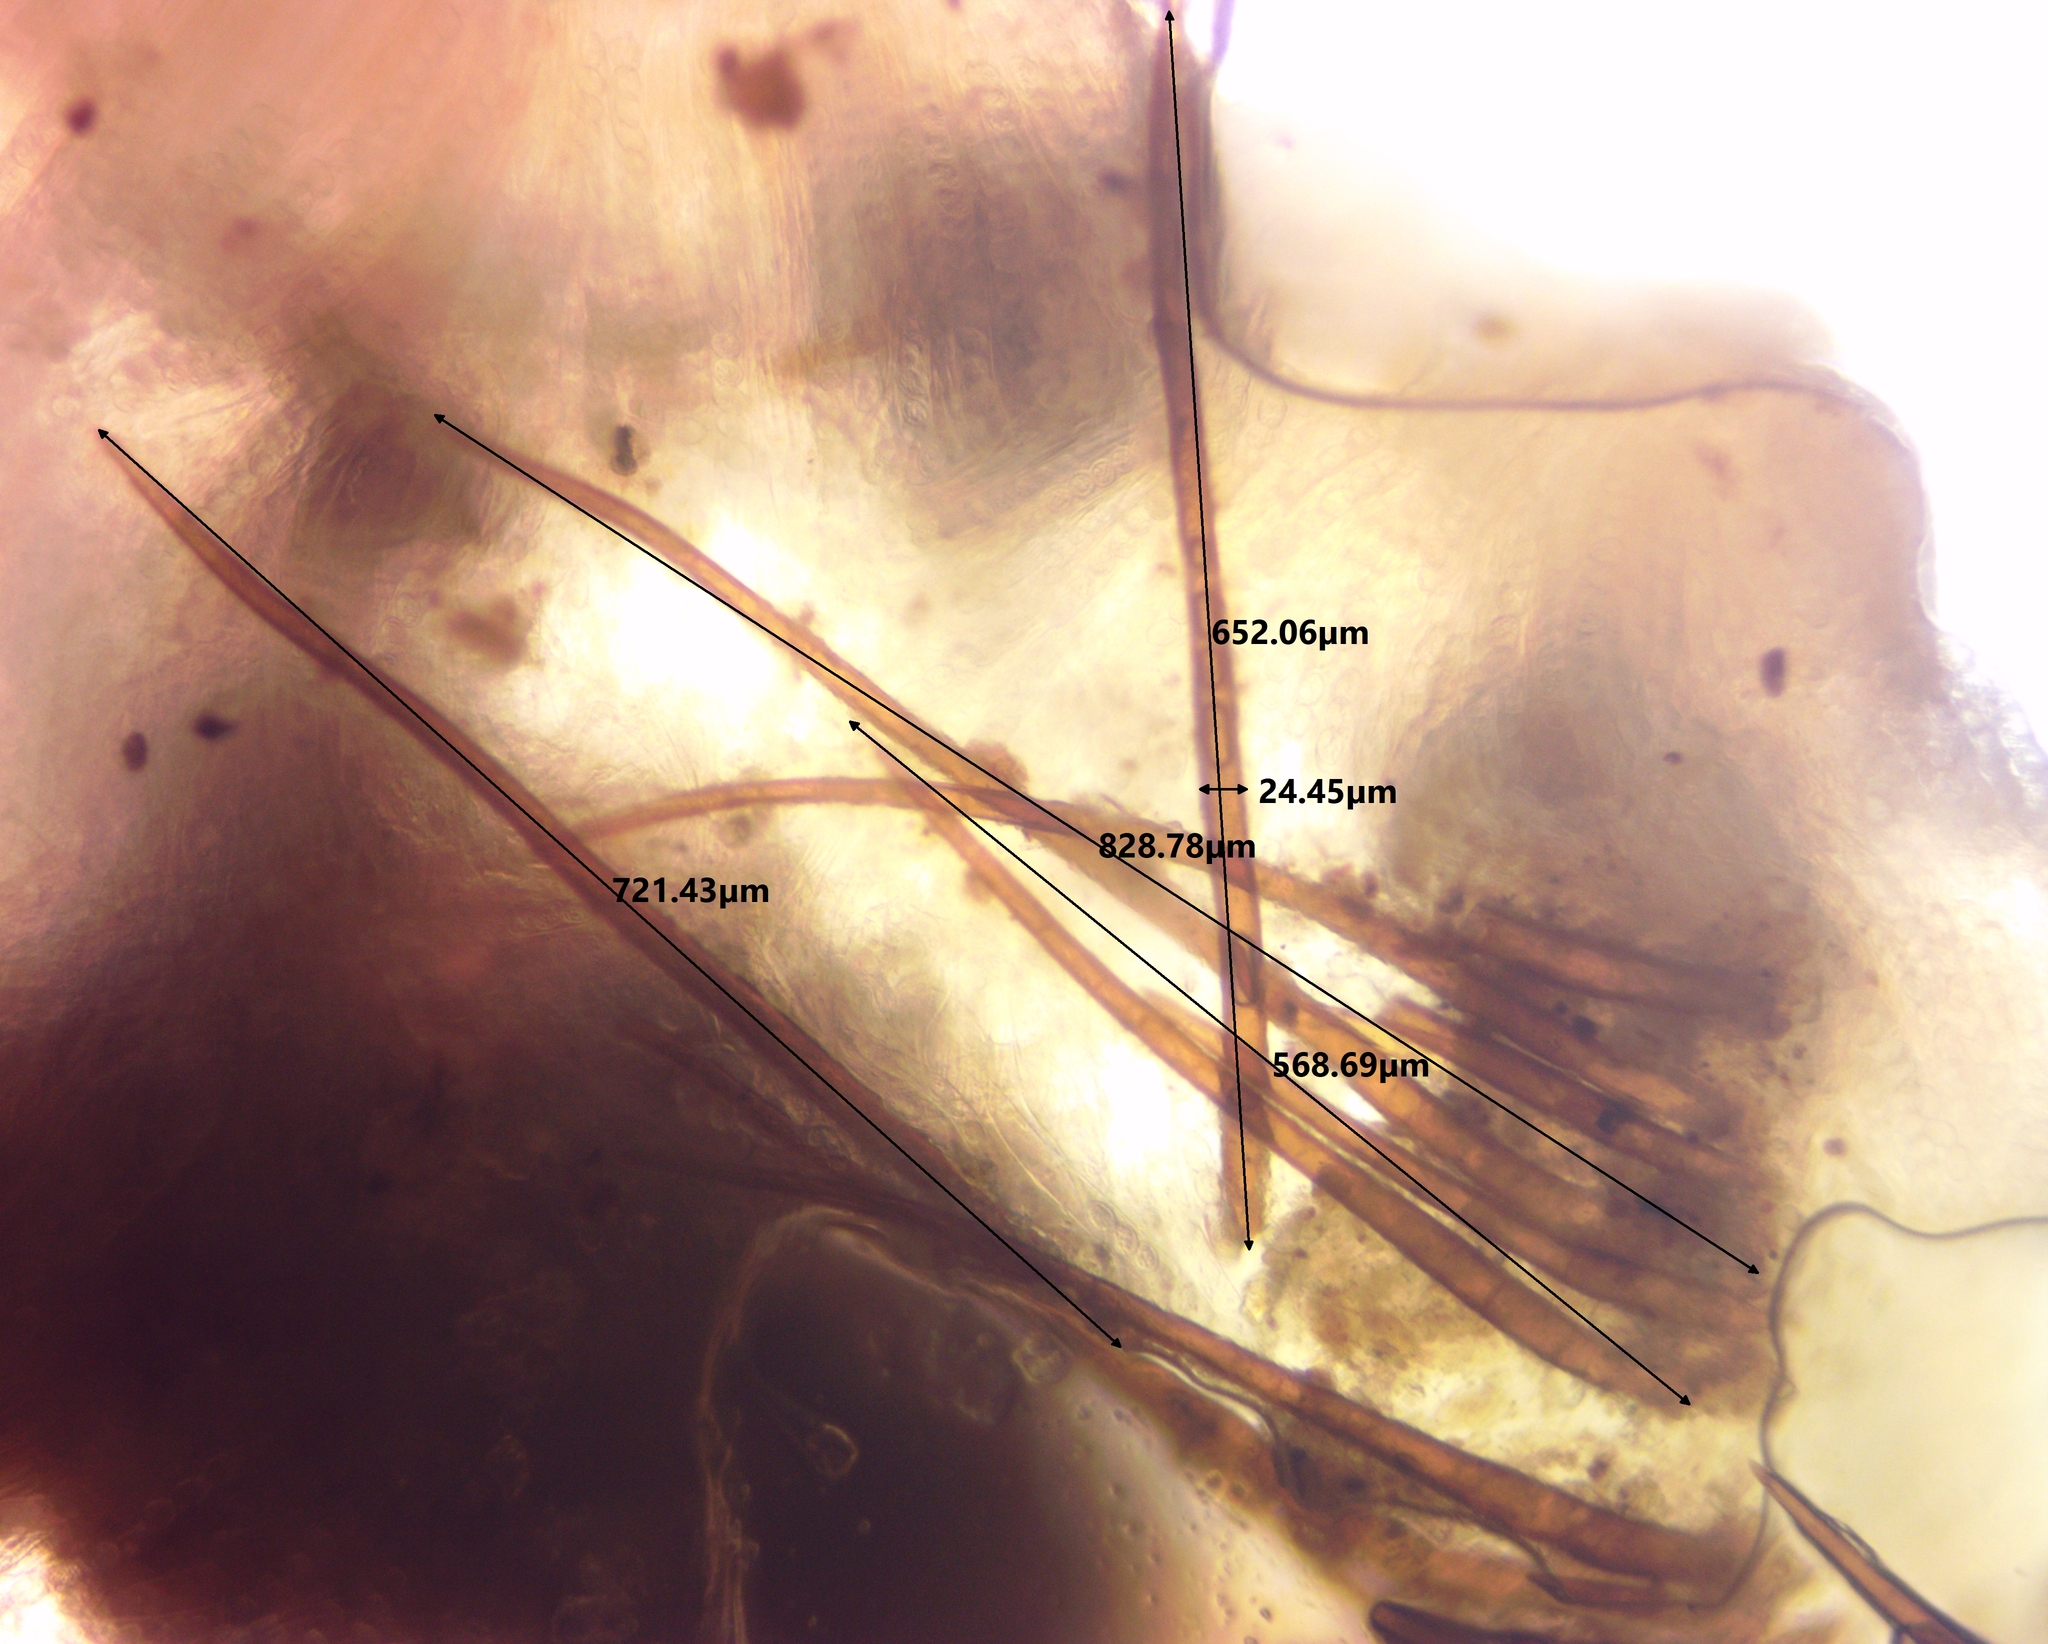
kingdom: Fungi
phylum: Ascomycota
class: Pezizomycetes
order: Pezizales
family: Pyronemataceae
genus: Scutellinia
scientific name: Scutellinia subhirtella
